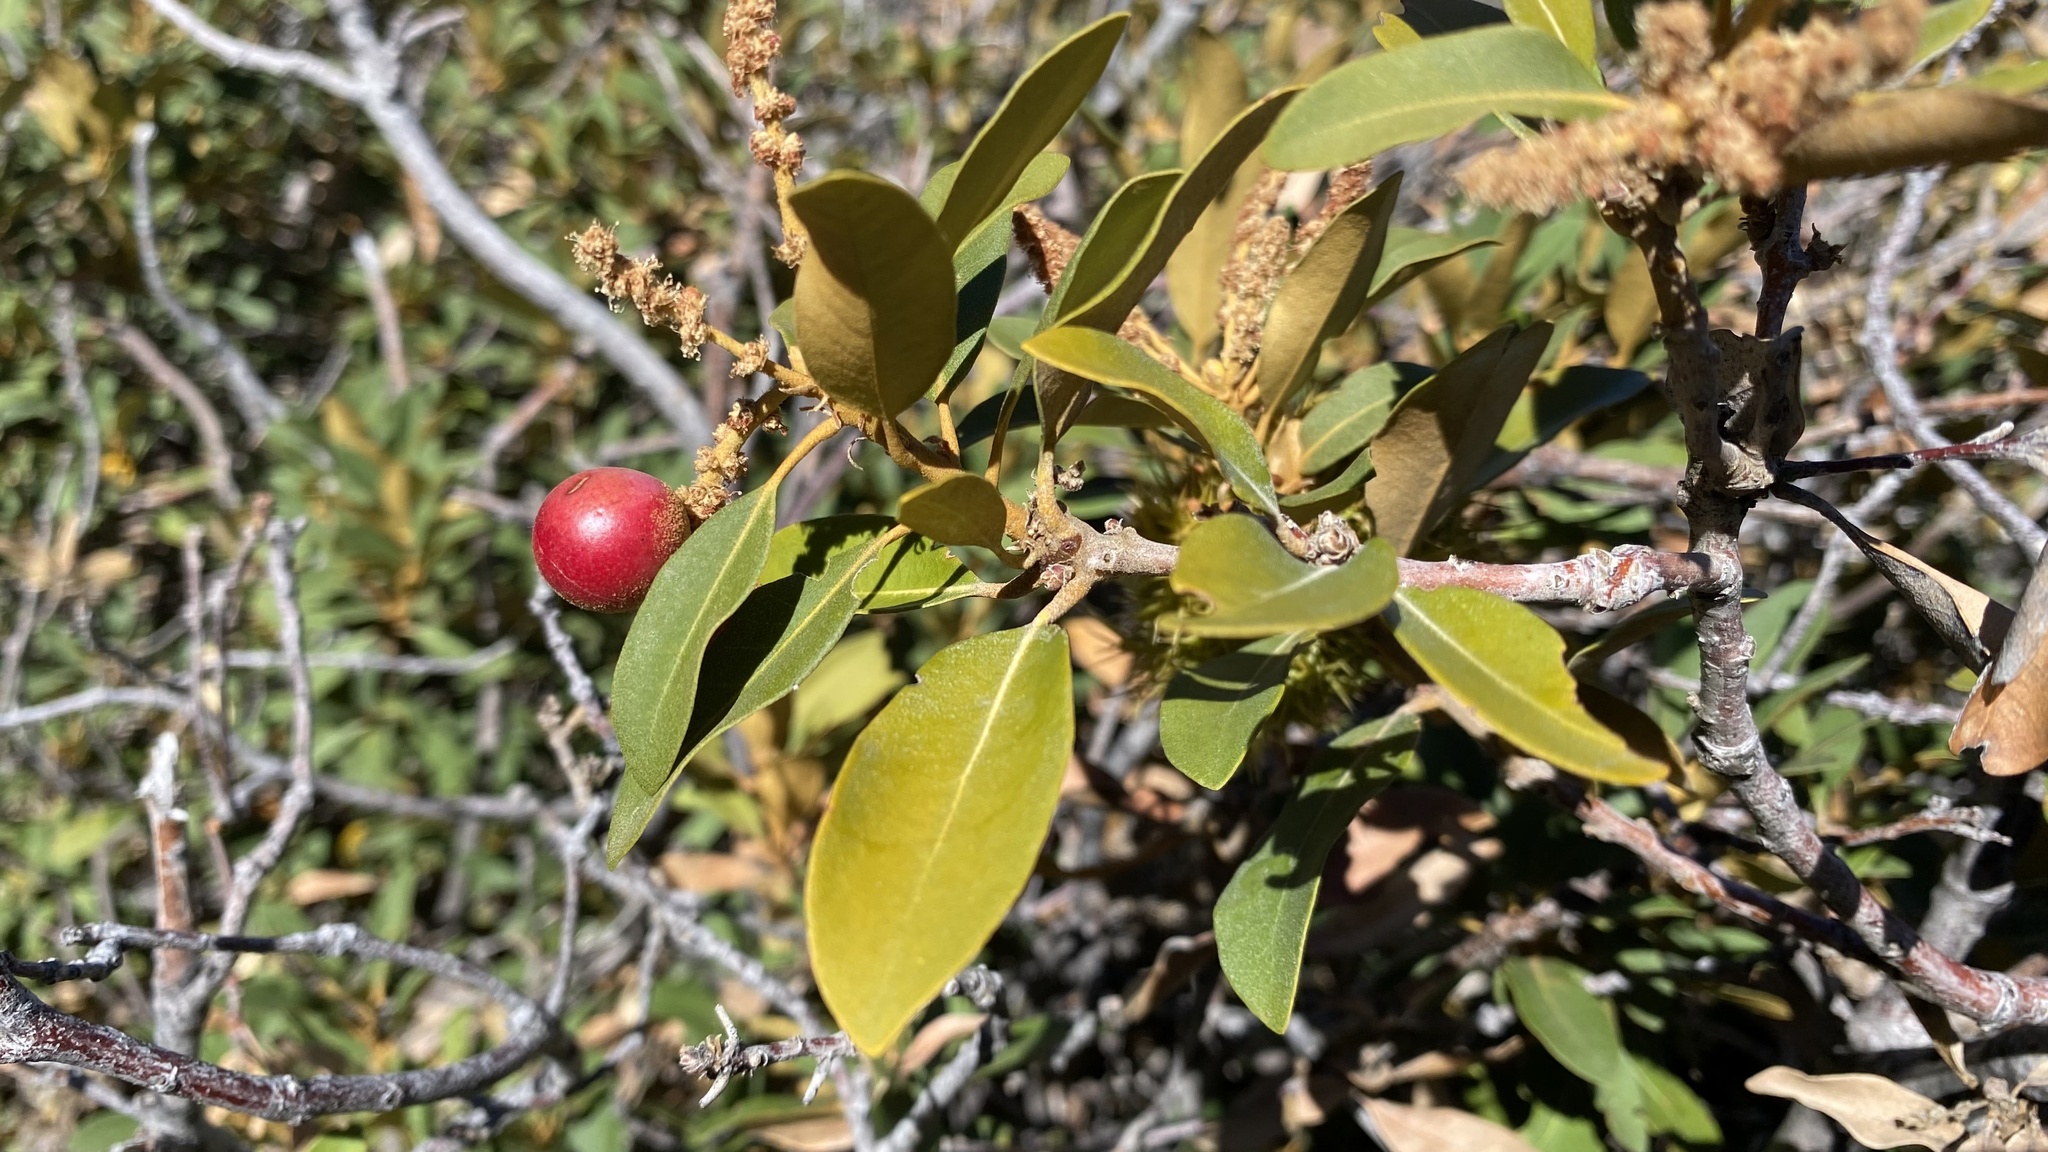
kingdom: Plantae
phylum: Tracheophyta
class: Magnoliopsida
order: Fagales
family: Fagaceae
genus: Chrysolepis
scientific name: Chrysolepis sempervirens
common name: Bush chinquapin
